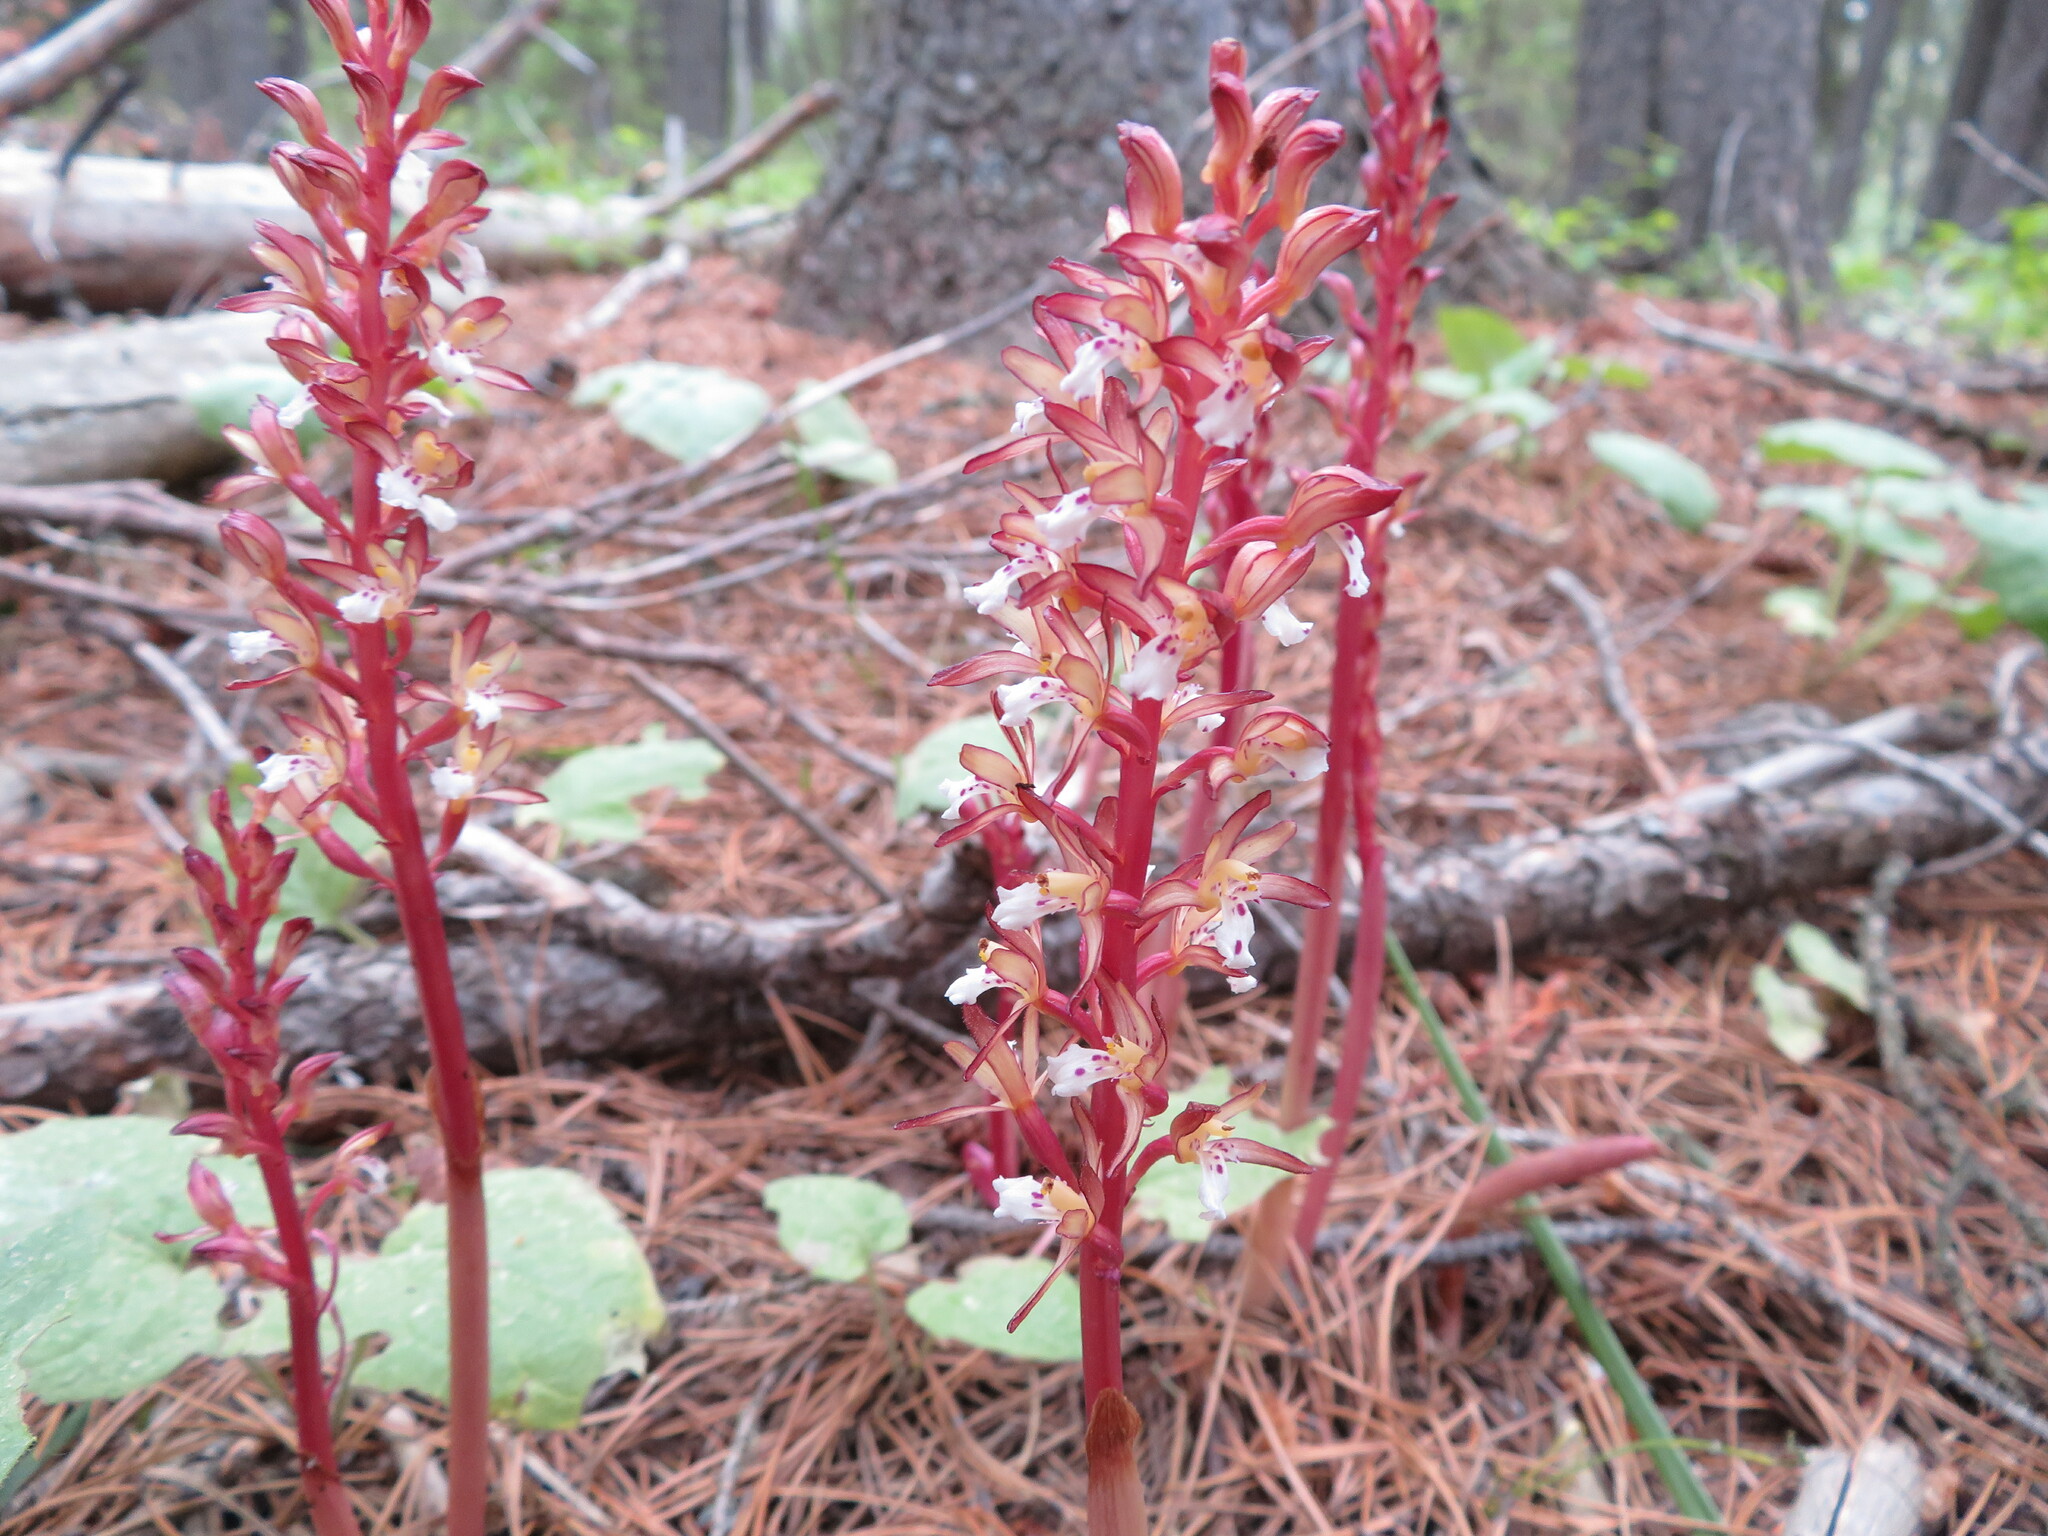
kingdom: Plantae
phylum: Tracheophyta
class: Liliopsida
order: Asparagales
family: Orchidaceae
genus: Corallorhiza
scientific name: Corallorhiza maculata
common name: Spotted coralroot
